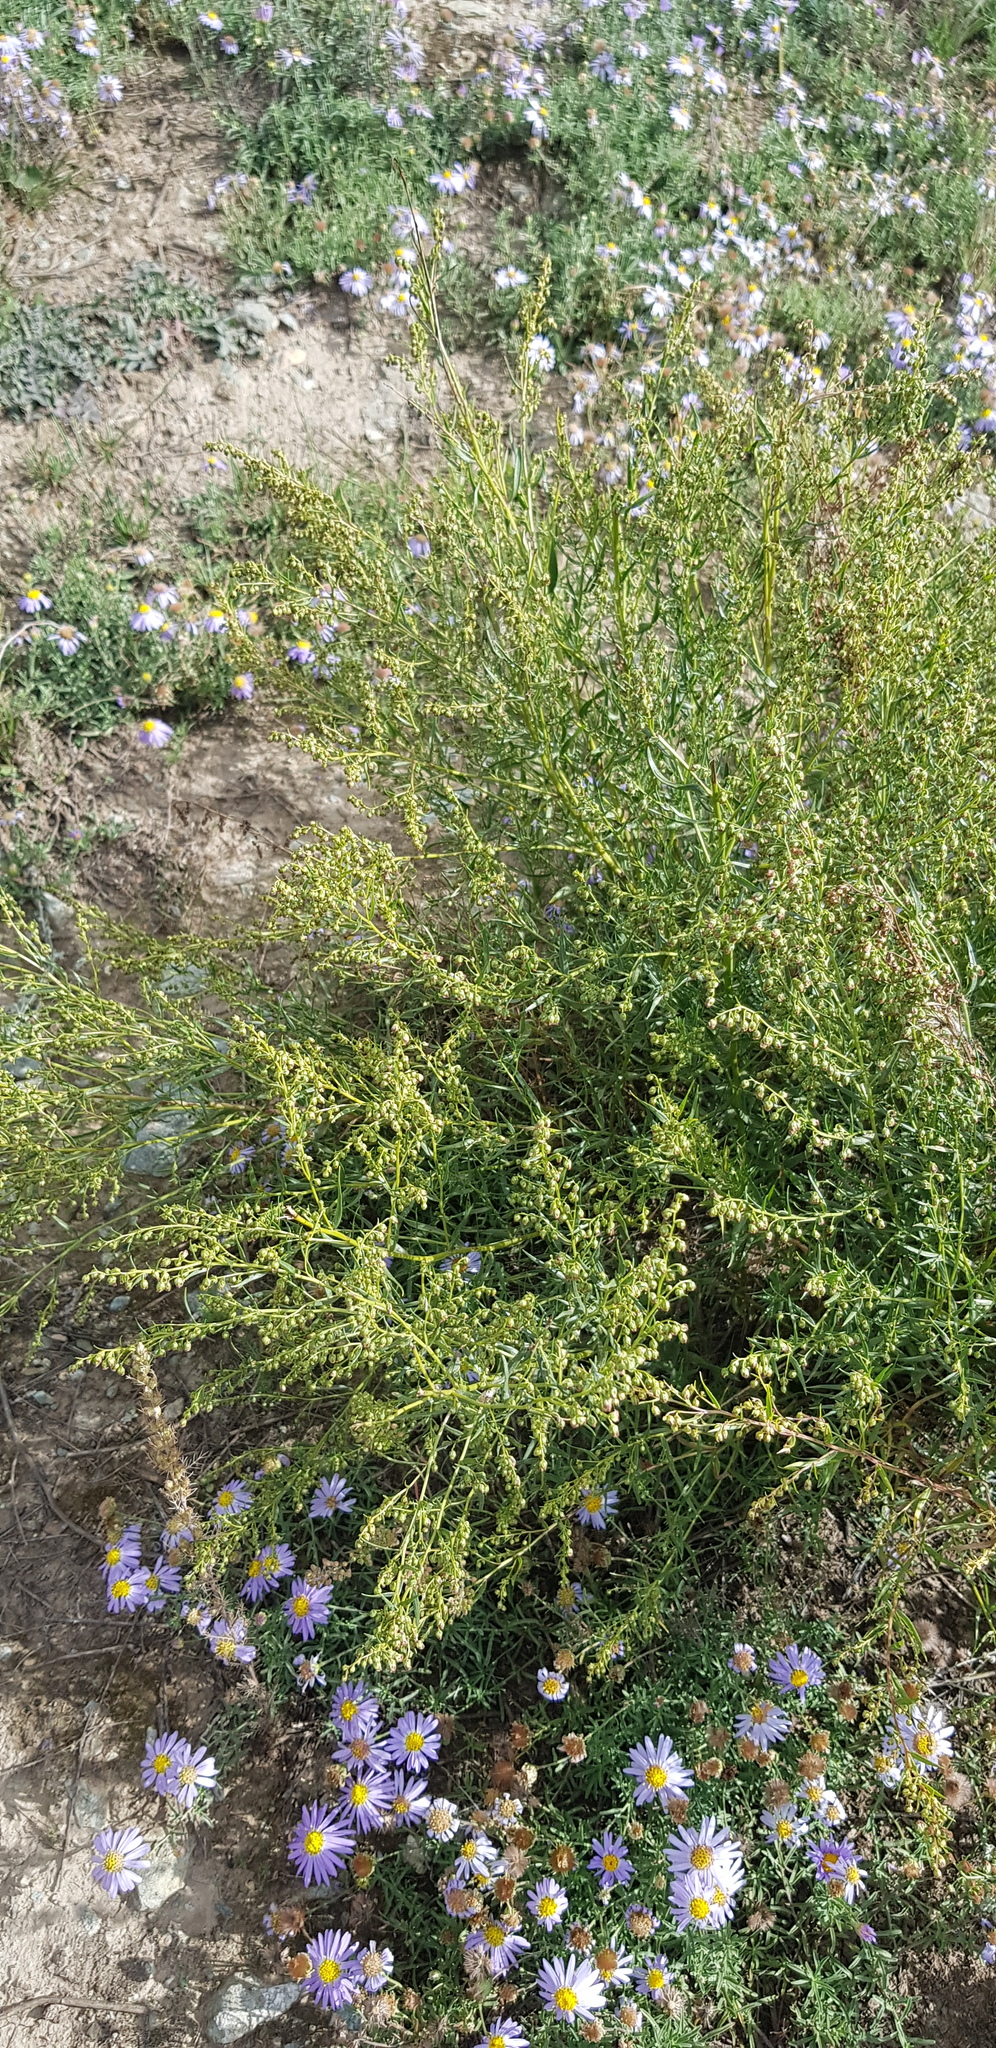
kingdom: Plantae
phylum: Tracheophyta
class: Magnoliopsida
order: Asterales
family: Asteraceae
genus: Artemisia
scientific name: Artemisia dracunculus
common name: Tarragon
